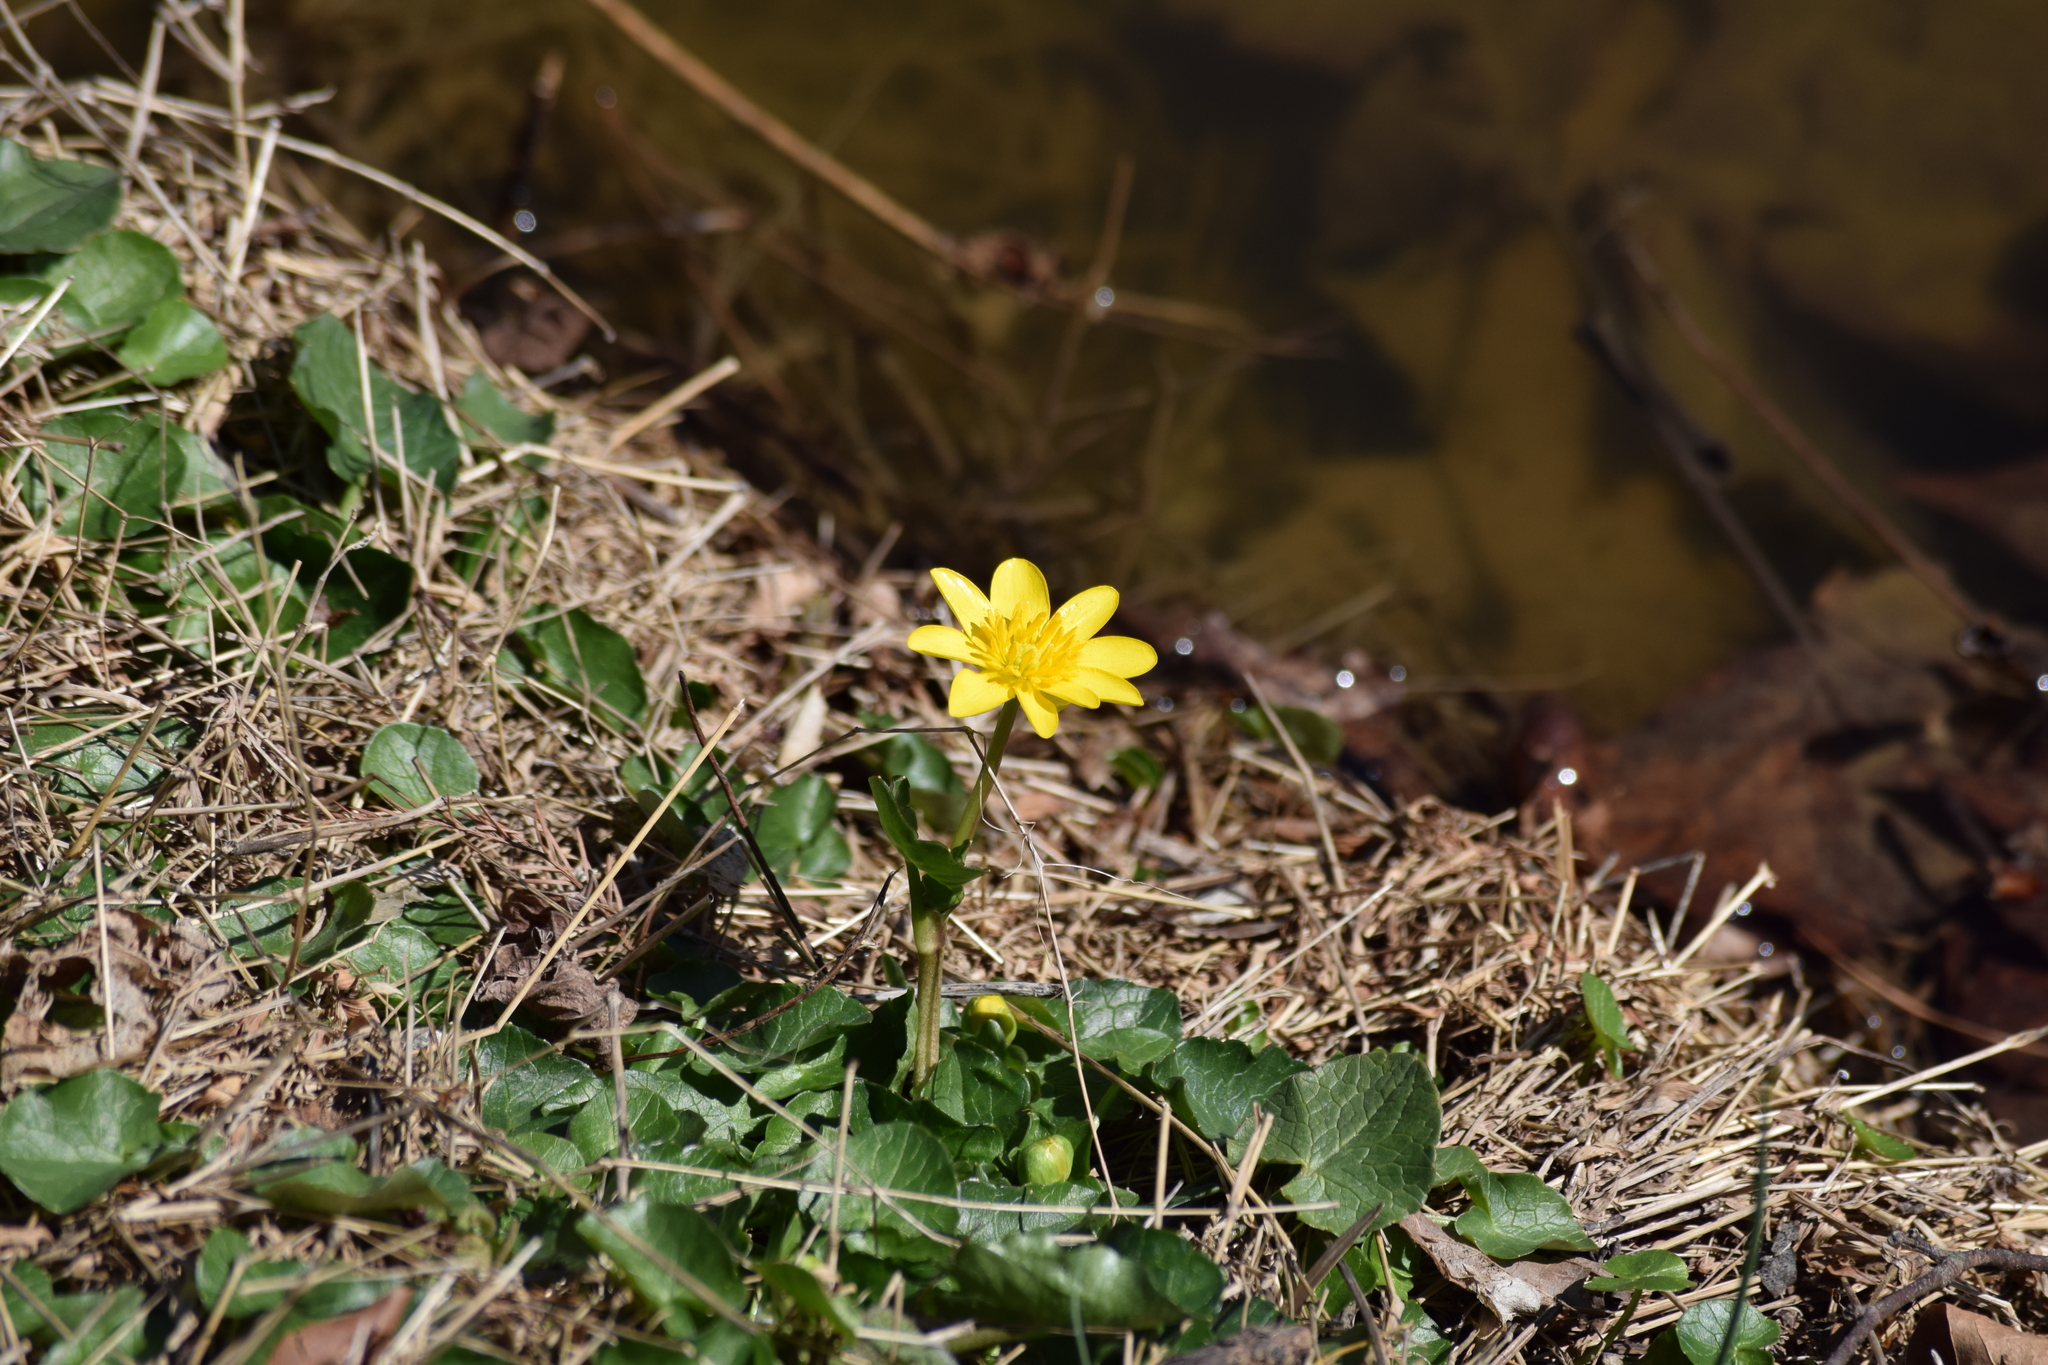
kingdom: Plantae
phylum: Tracheophyta
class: Magnoliopsida
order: Ranunculales
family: Ranunculaceae
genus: Ficaria
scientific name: Ficaria verna
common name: Lesser celandine
